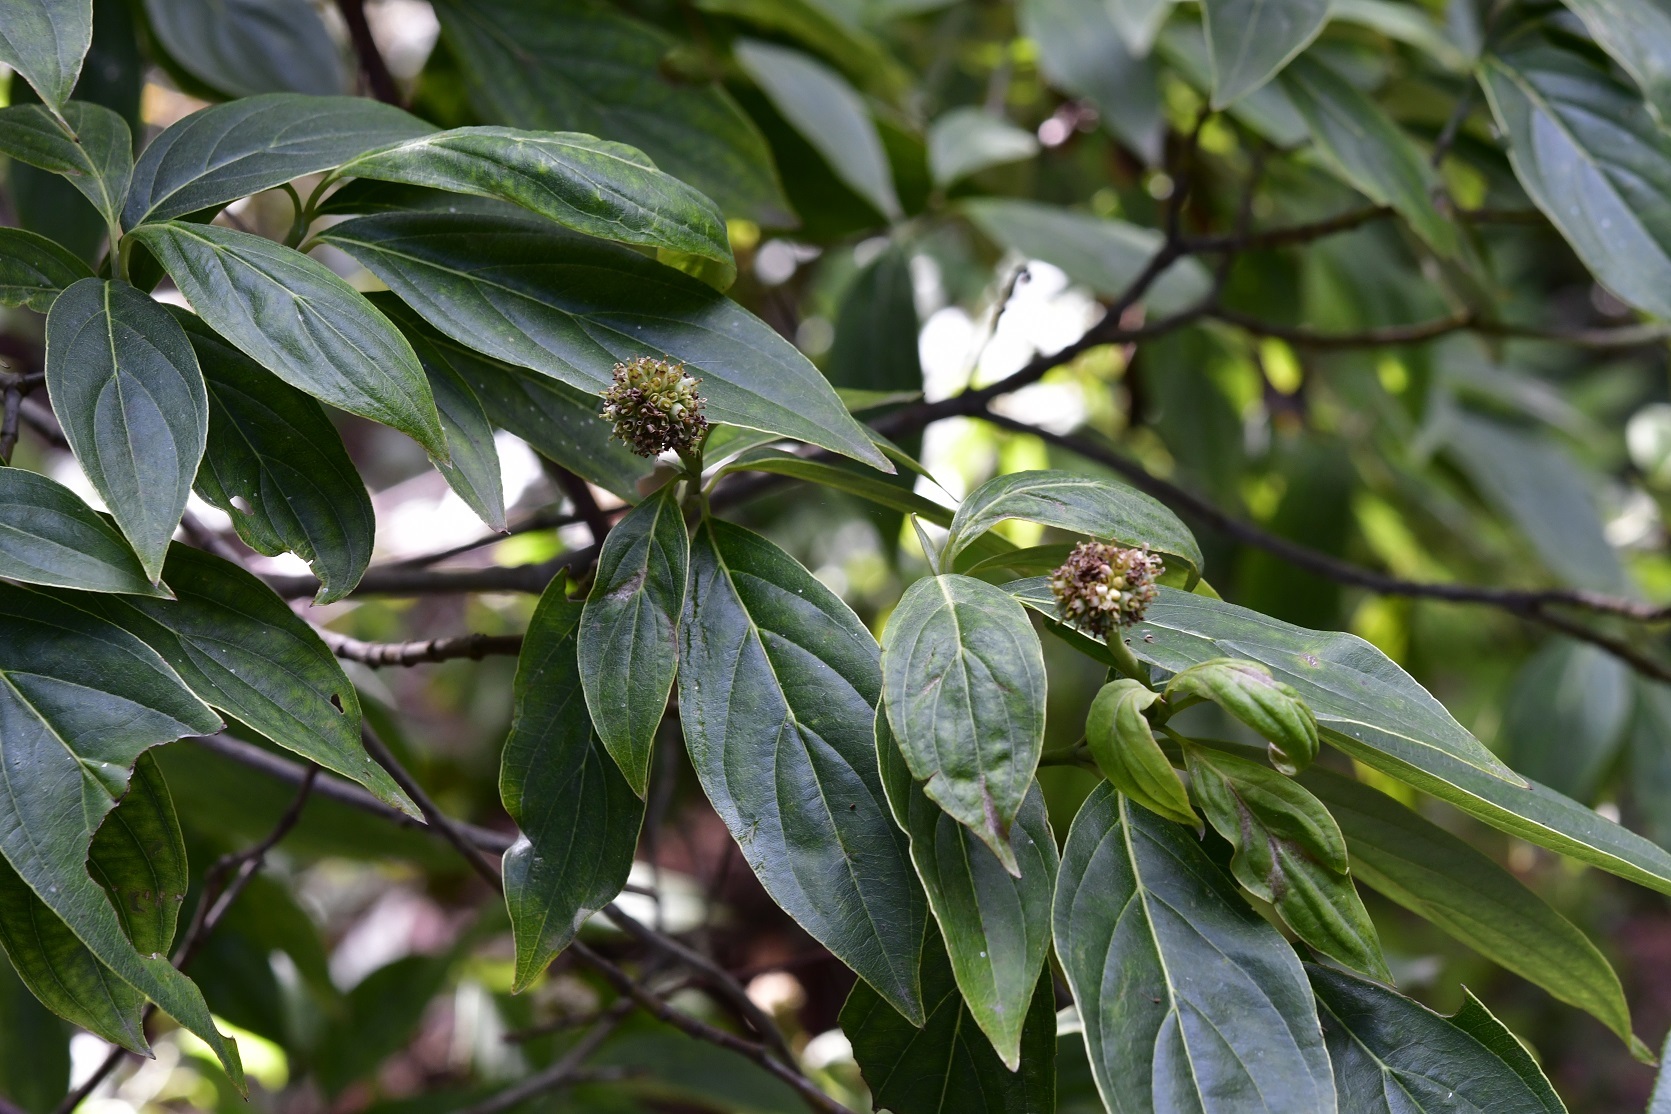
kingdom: Plantae
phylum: Tracheophyta
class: Magnoliopsida
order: Cornales
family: Cornaceae
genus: Cornus
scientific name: Cornus disciflora
